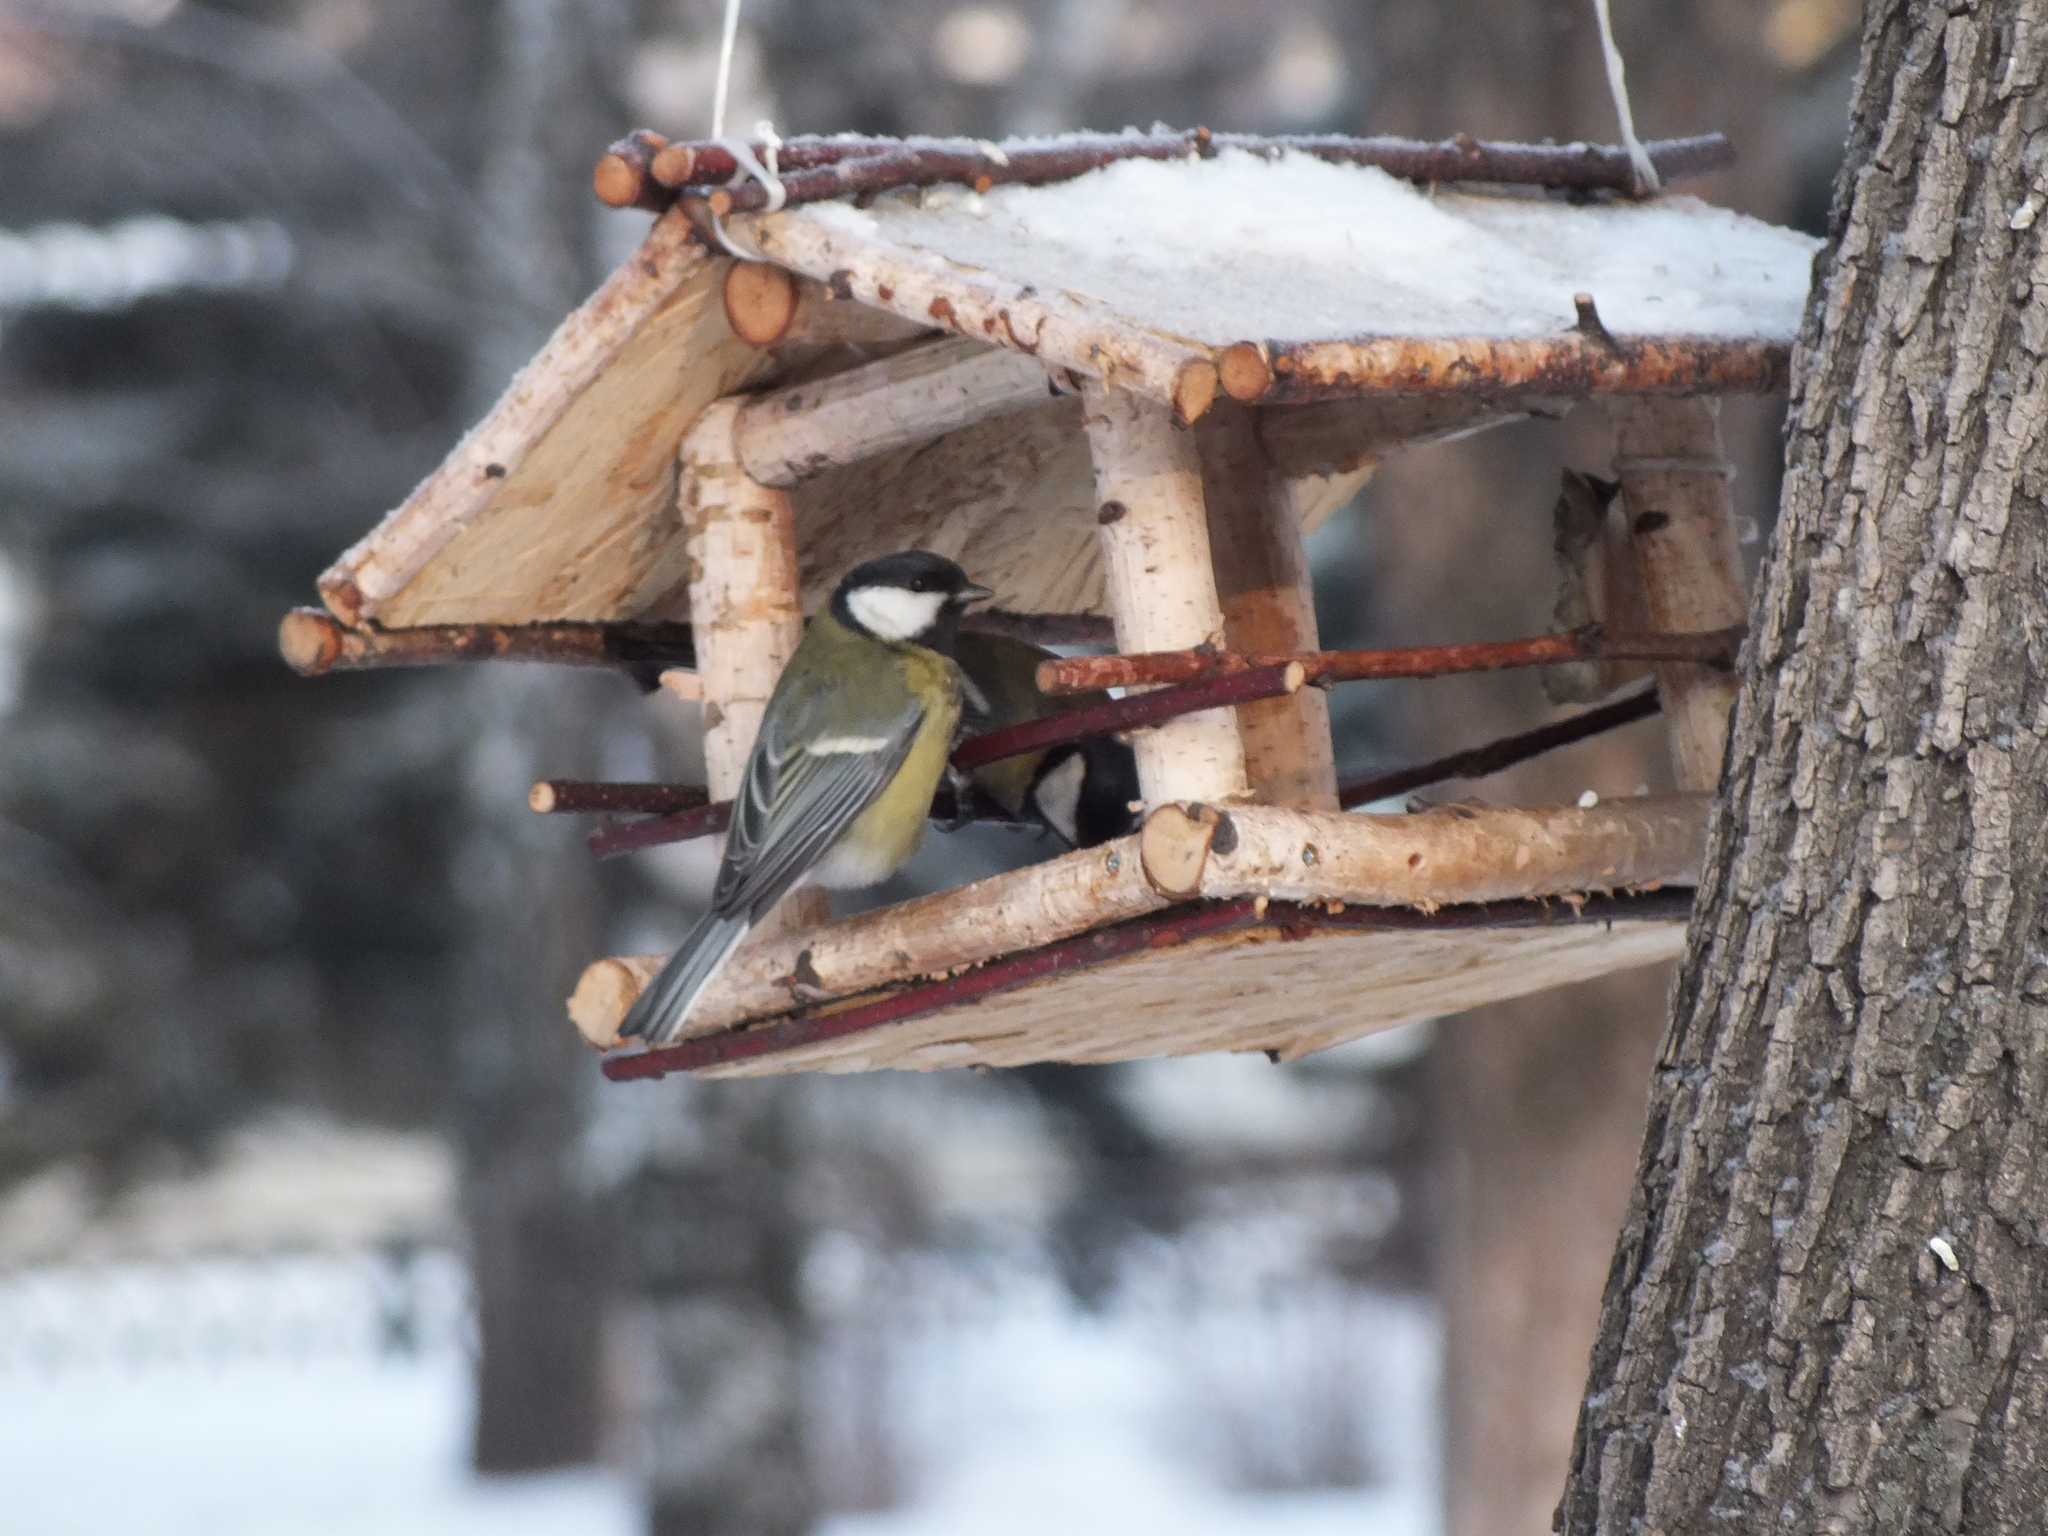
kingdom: Animalia
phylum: Chordata
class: Aves
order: Passeriformes
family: Paridae
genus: Parus
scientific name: Parus major
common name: Great tit
